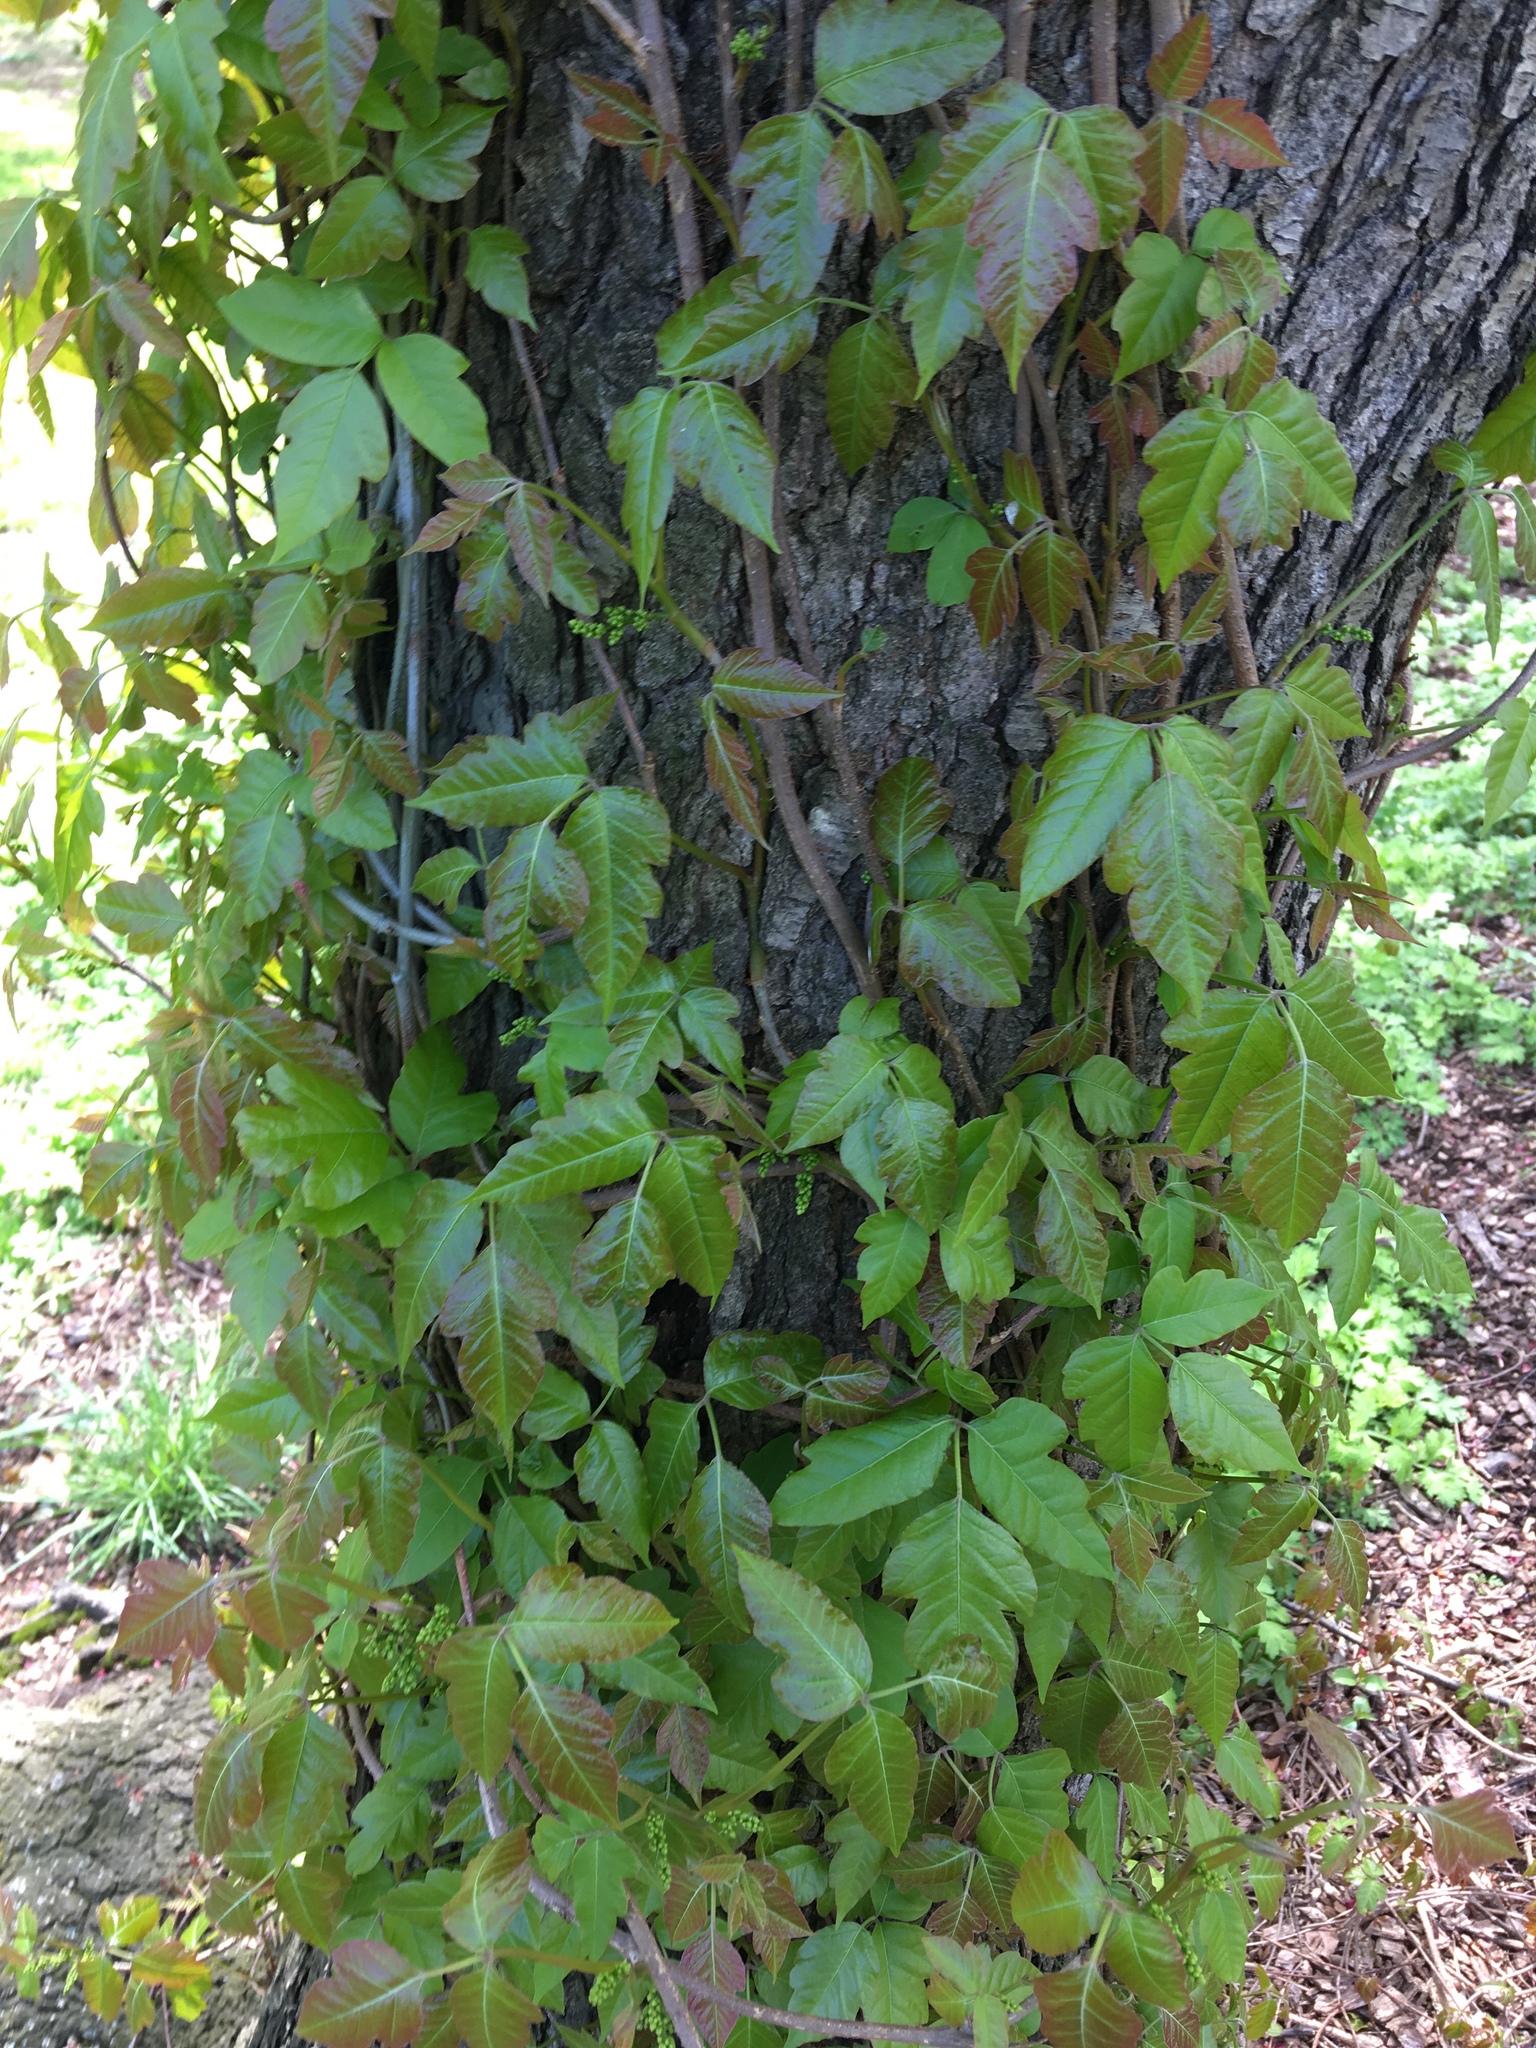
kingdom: Plantae
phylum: Tracheophyta
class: Magnoliopsida
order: Sapindales
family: Anacardiaceae
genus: Toxicodendron
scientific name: Toxicodendron radicans
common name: Poison ivy
